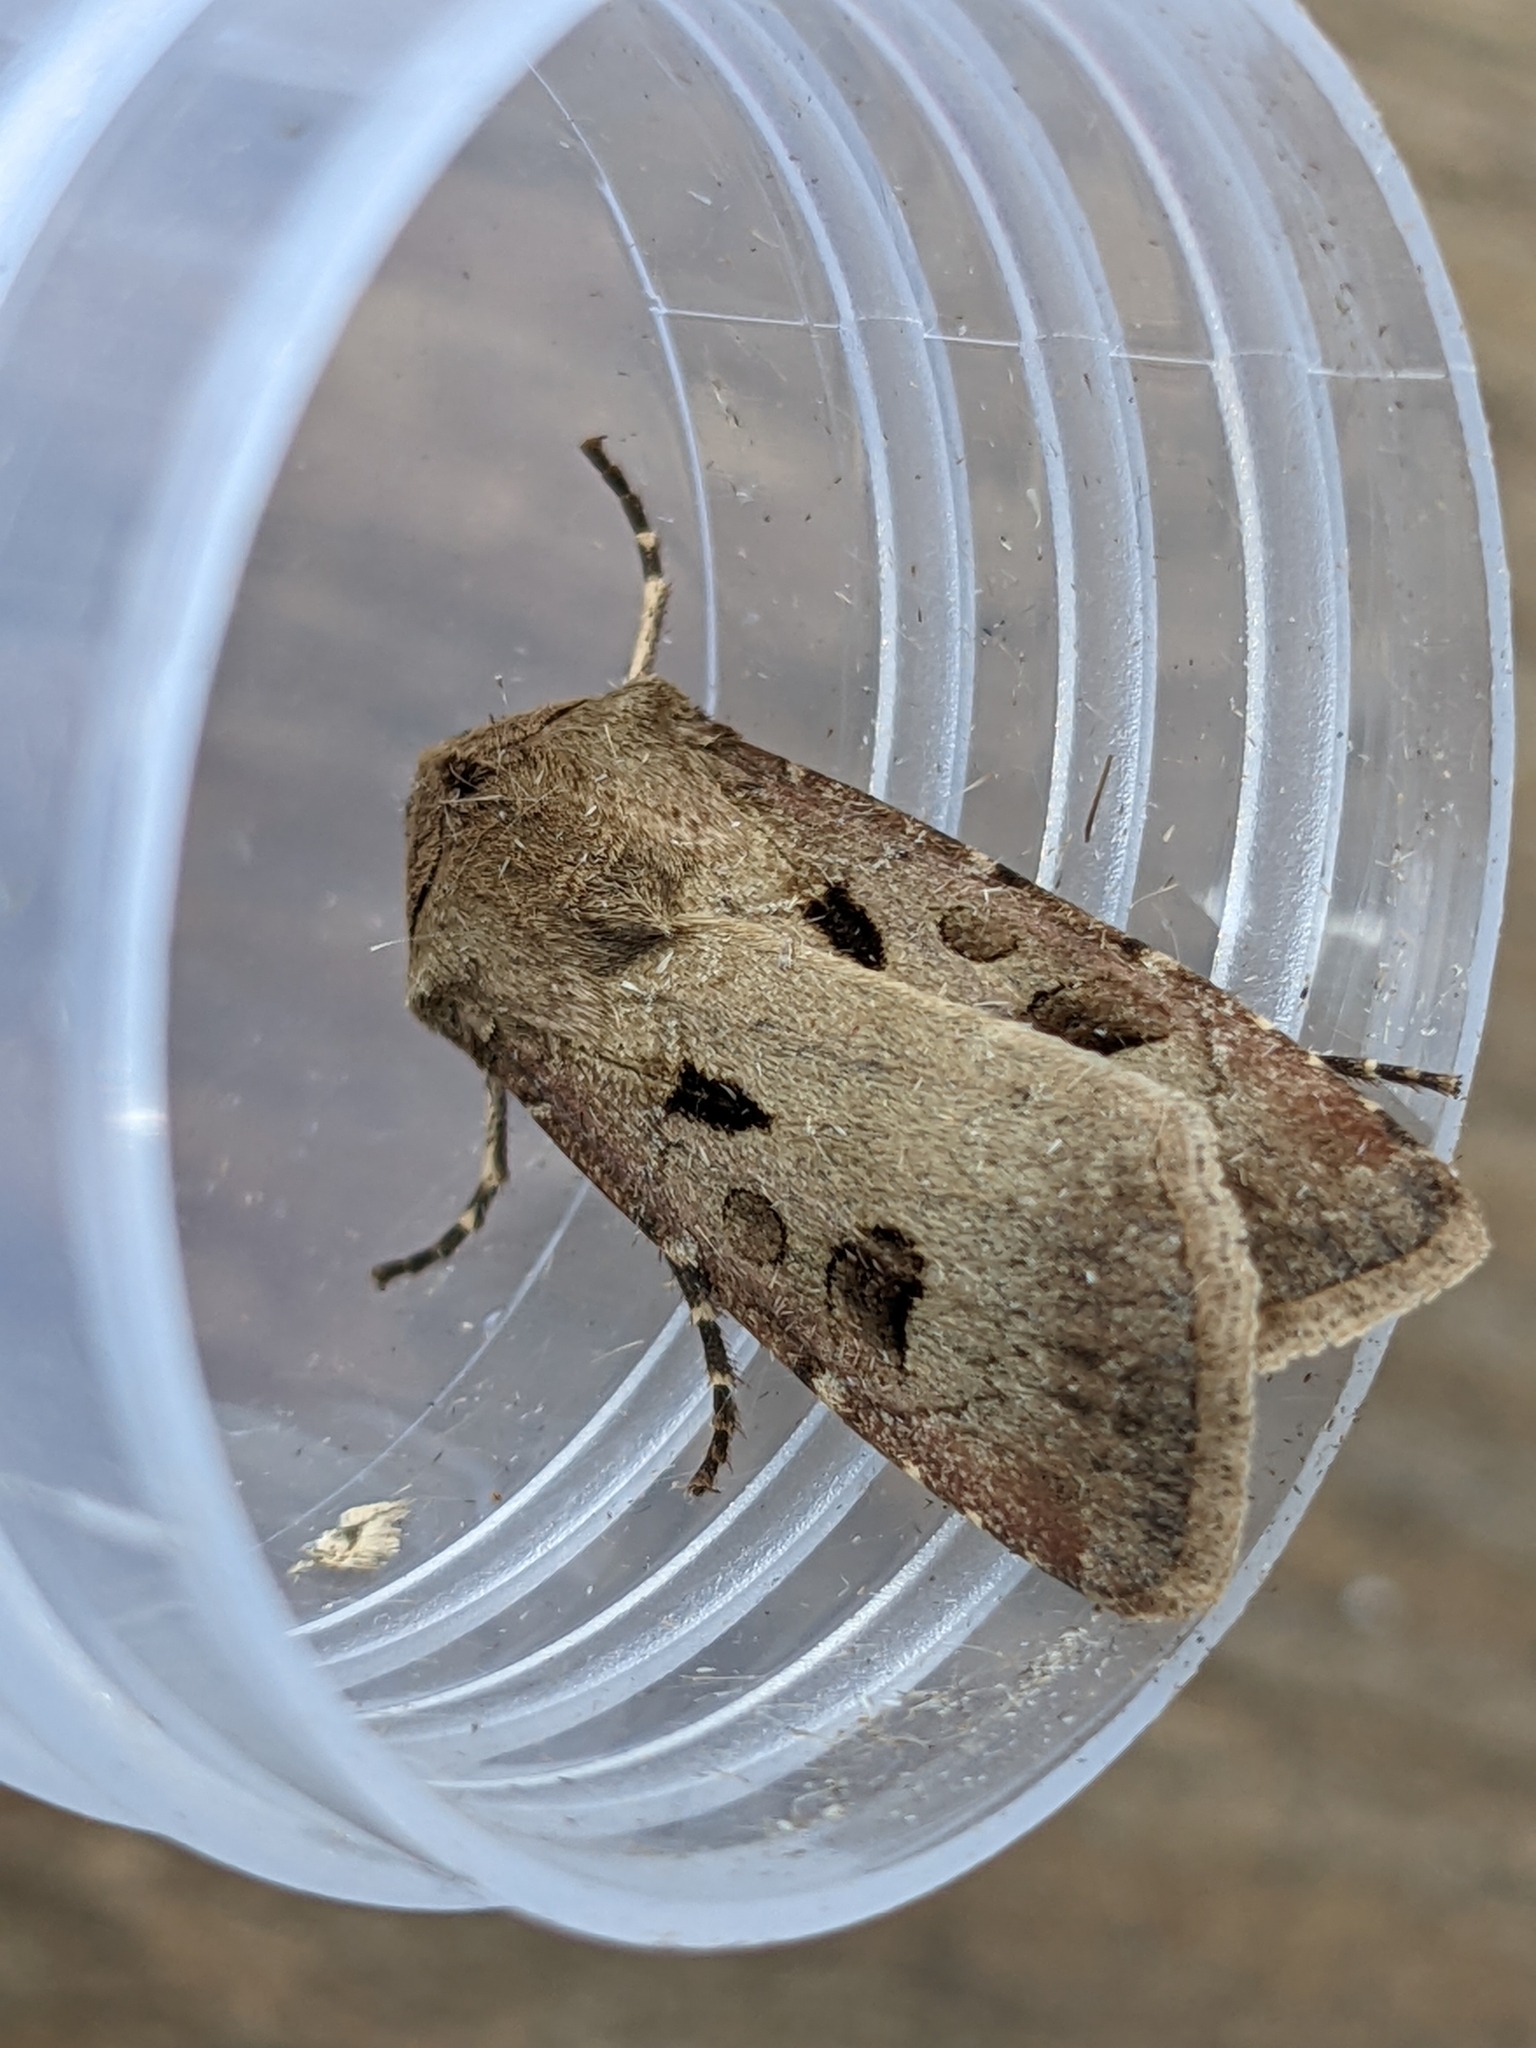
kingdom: Animalia
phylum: Arthropoda
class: Insecta
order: Lepidoptera
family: Noctuidae
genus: Agrotis
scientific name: Agrotis exclamationis
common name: Heart and dart
